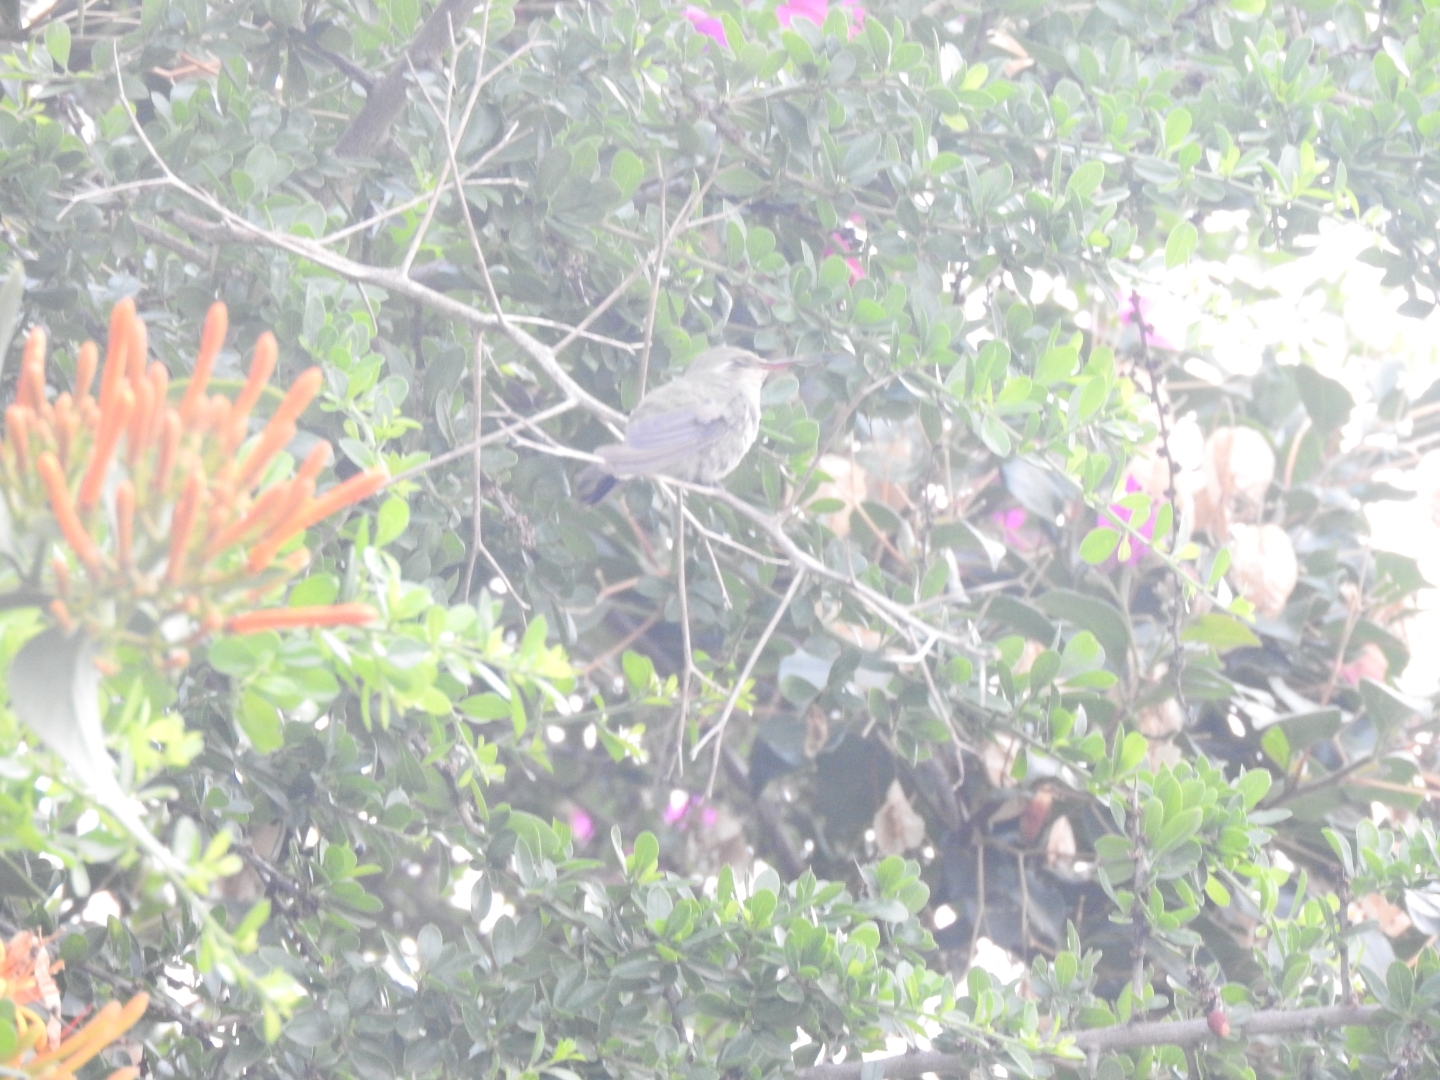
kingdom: Animalia
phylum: Chordata
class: Aves
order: Apodiformes
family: Trochilidae
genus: Cynanthus
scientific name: Cynanthus latirostris
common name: Broad-billed hummingbird
